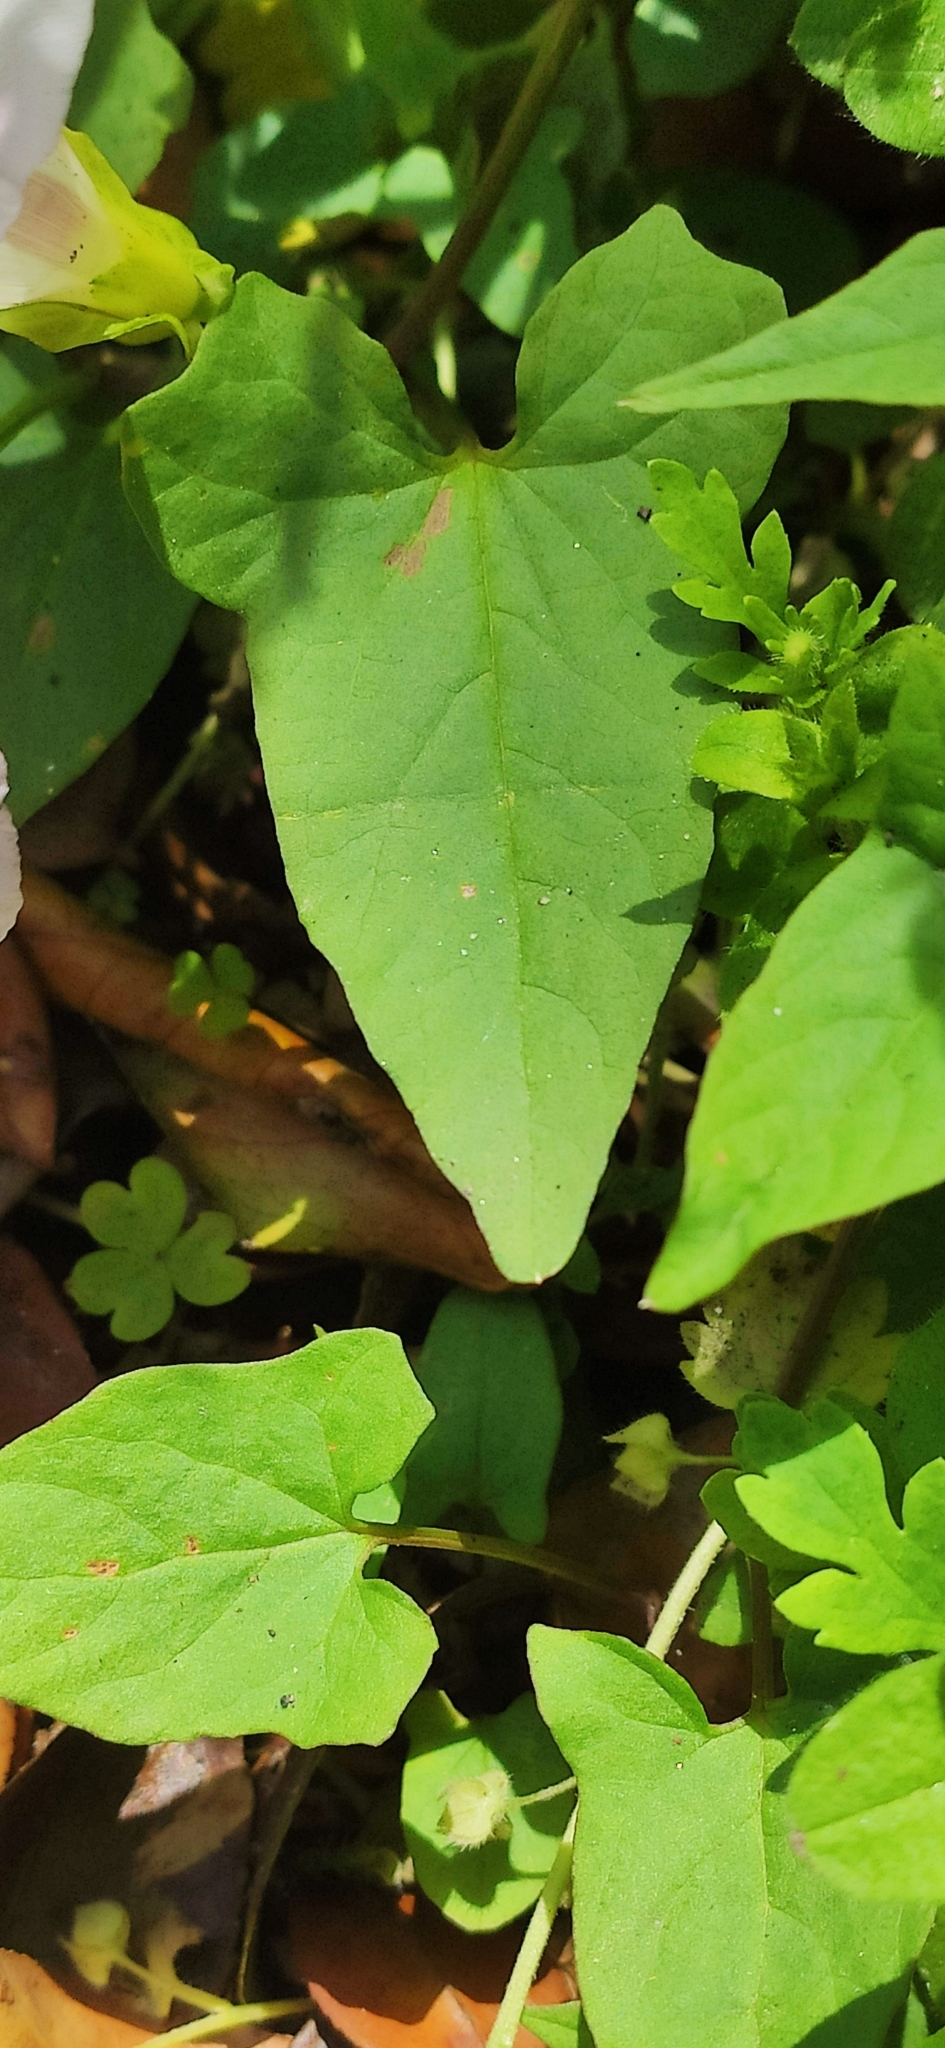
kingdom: Plantae
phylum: Tracheophyta
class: Magnoliopsida
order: Solanales
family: Convolvulaceae
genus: Convolvulus
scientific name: Convolvulus arvensis
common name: Field bindweed
